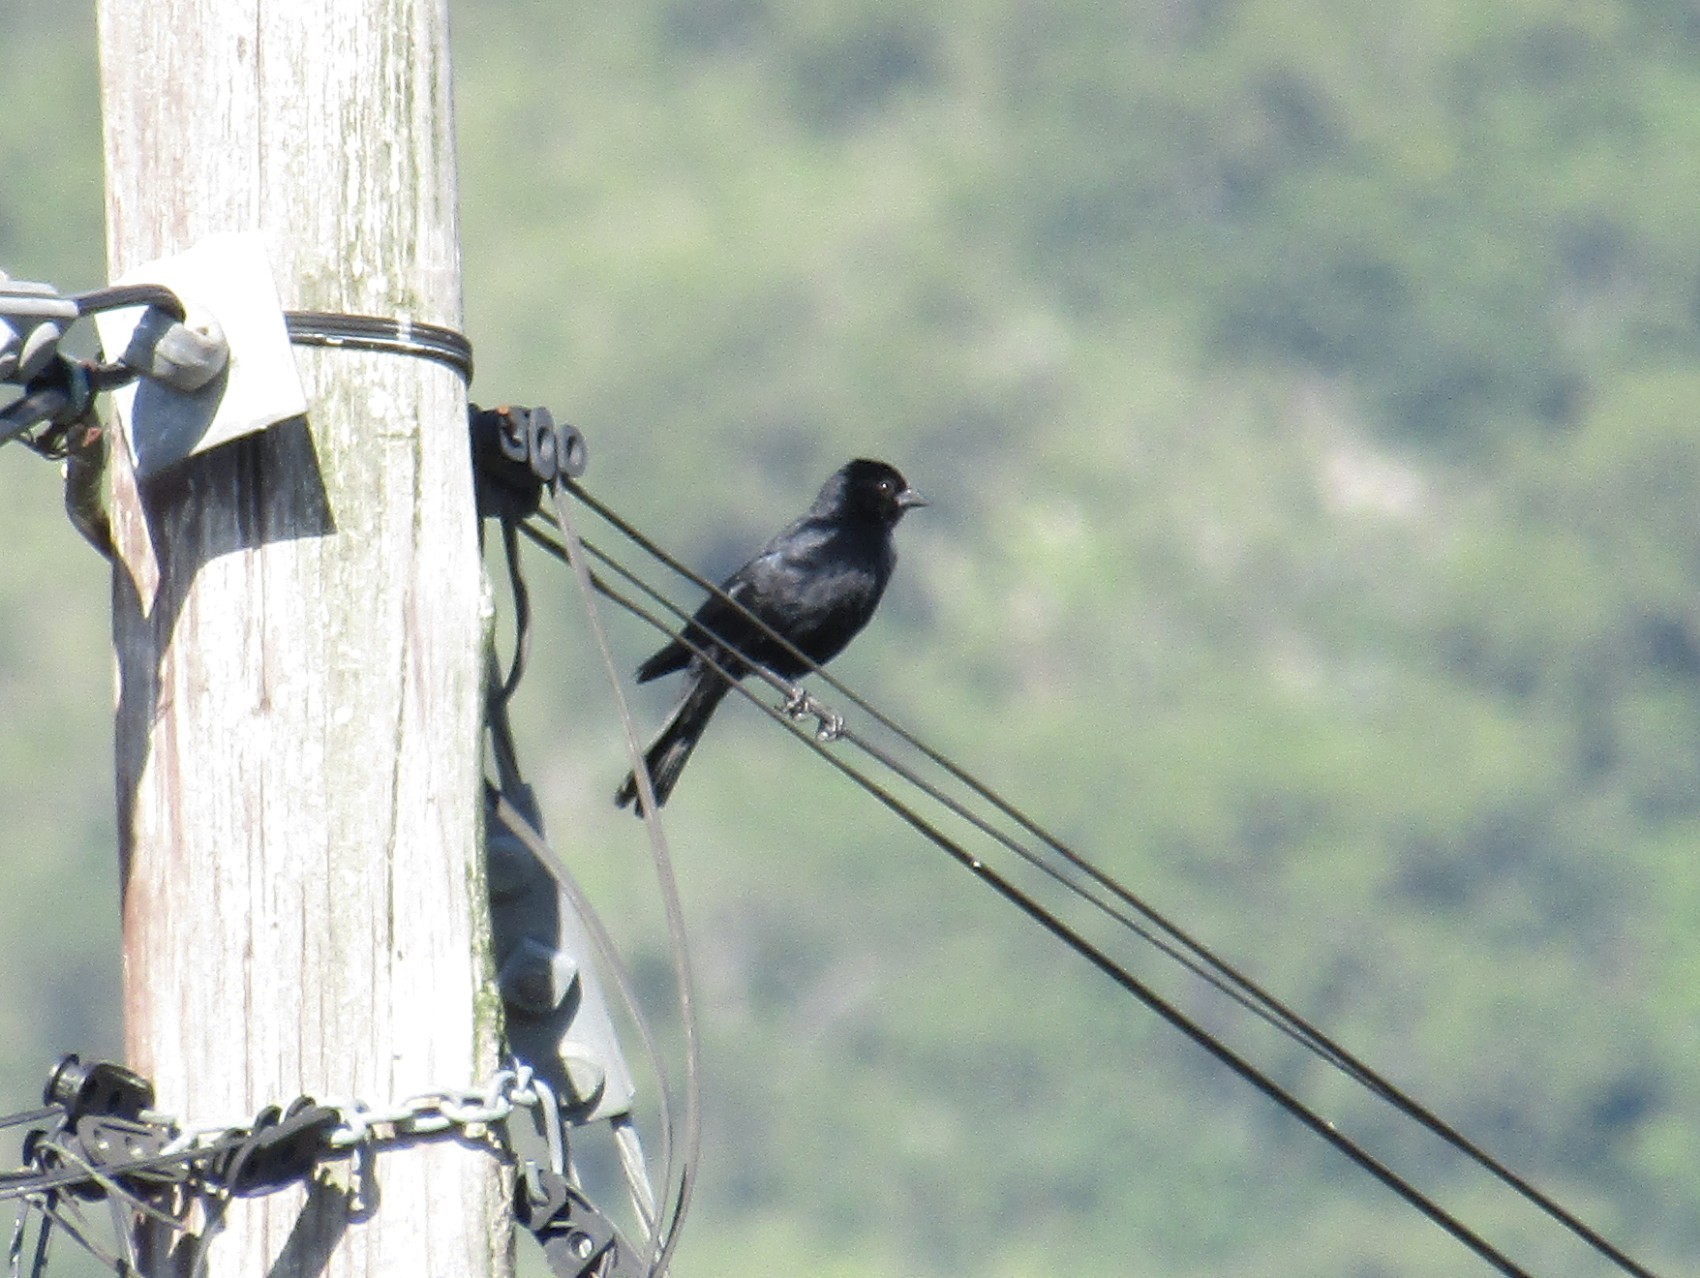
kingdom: Animalia
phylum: Chordata
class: Aves
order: Passeriformes
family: Icteridae
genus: Molothrus
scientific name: Molothrus bonariensis
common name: Shiny cowbird
